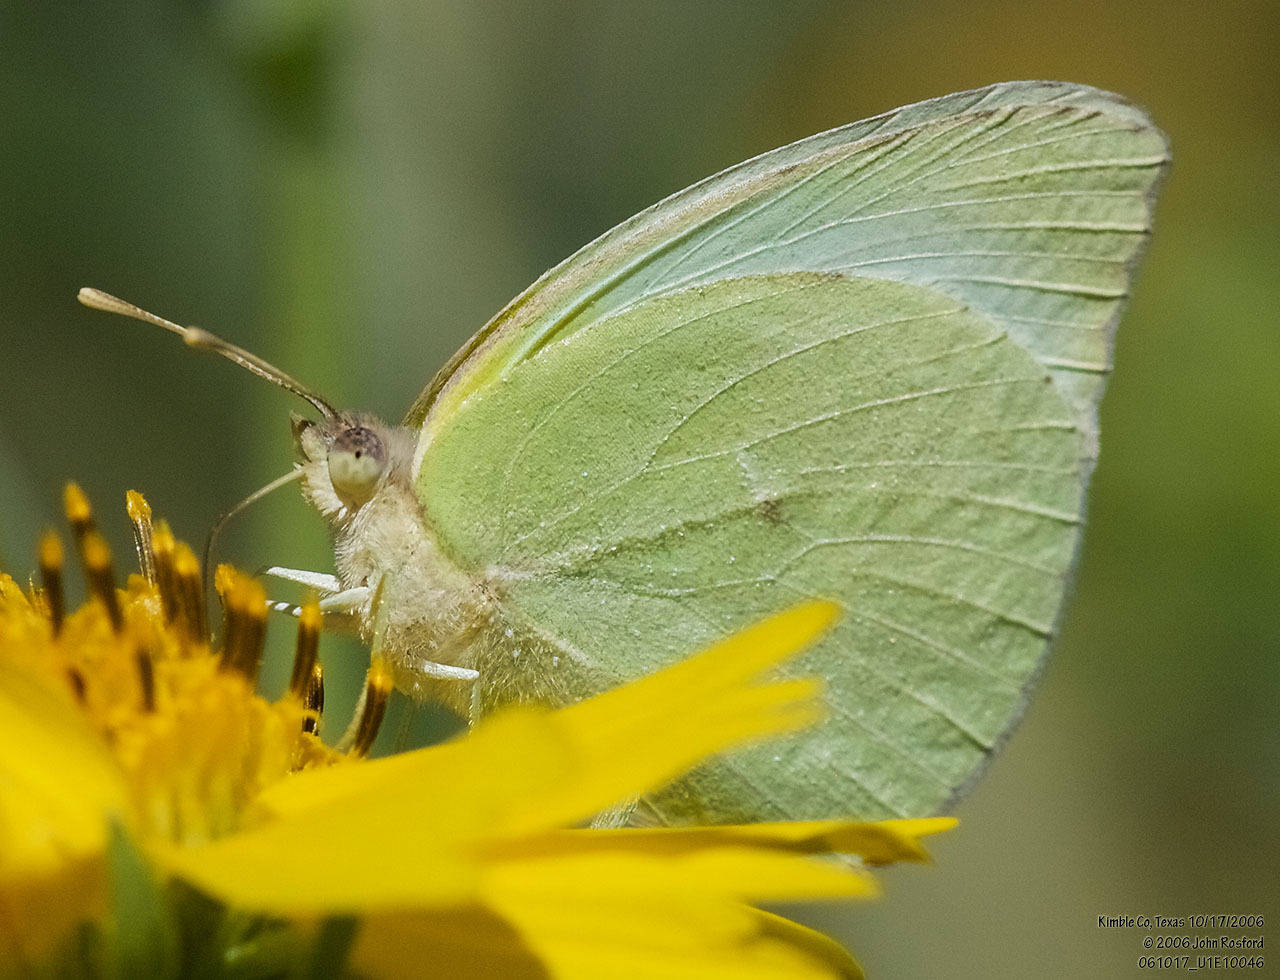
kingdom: Animalia
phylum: Arthropoda
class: Insecta
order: Lepidoptera
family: Pieridae
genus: Kricogonia
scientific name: Kricogonia lyside
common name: Guayacan sulphur,
